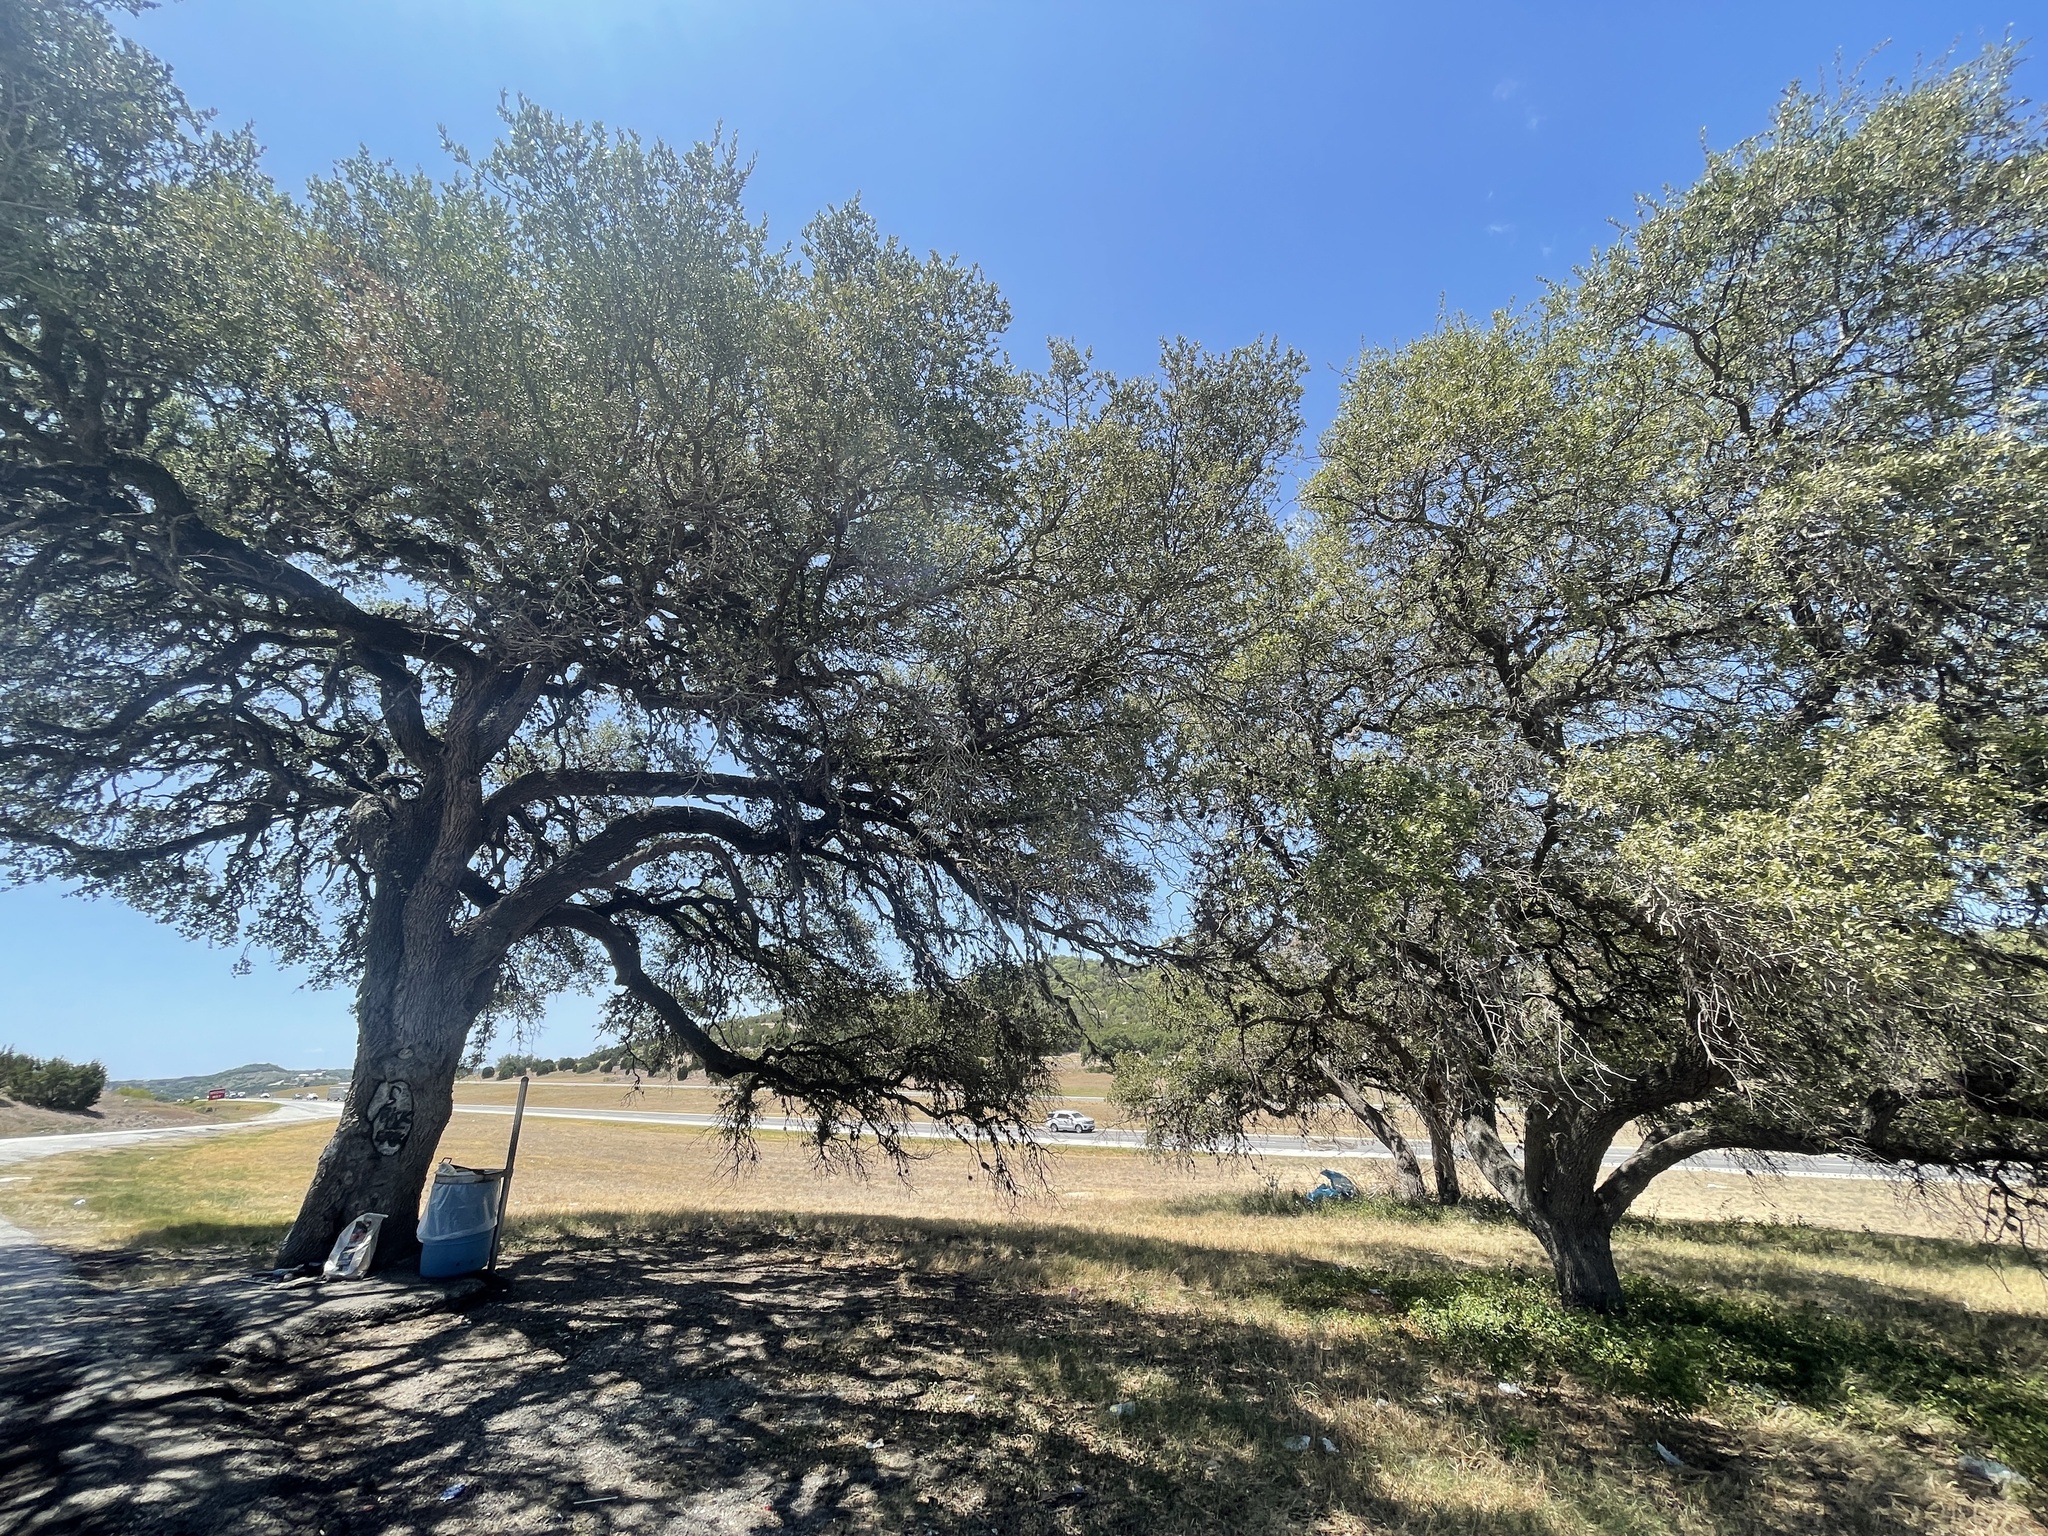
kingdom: Plantae
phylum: Tracheophyta
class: Magnoliopsida
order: Fagales
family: Fagaceae
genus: Quercus
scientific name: Quercus fusiformis
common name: Texas live oak
